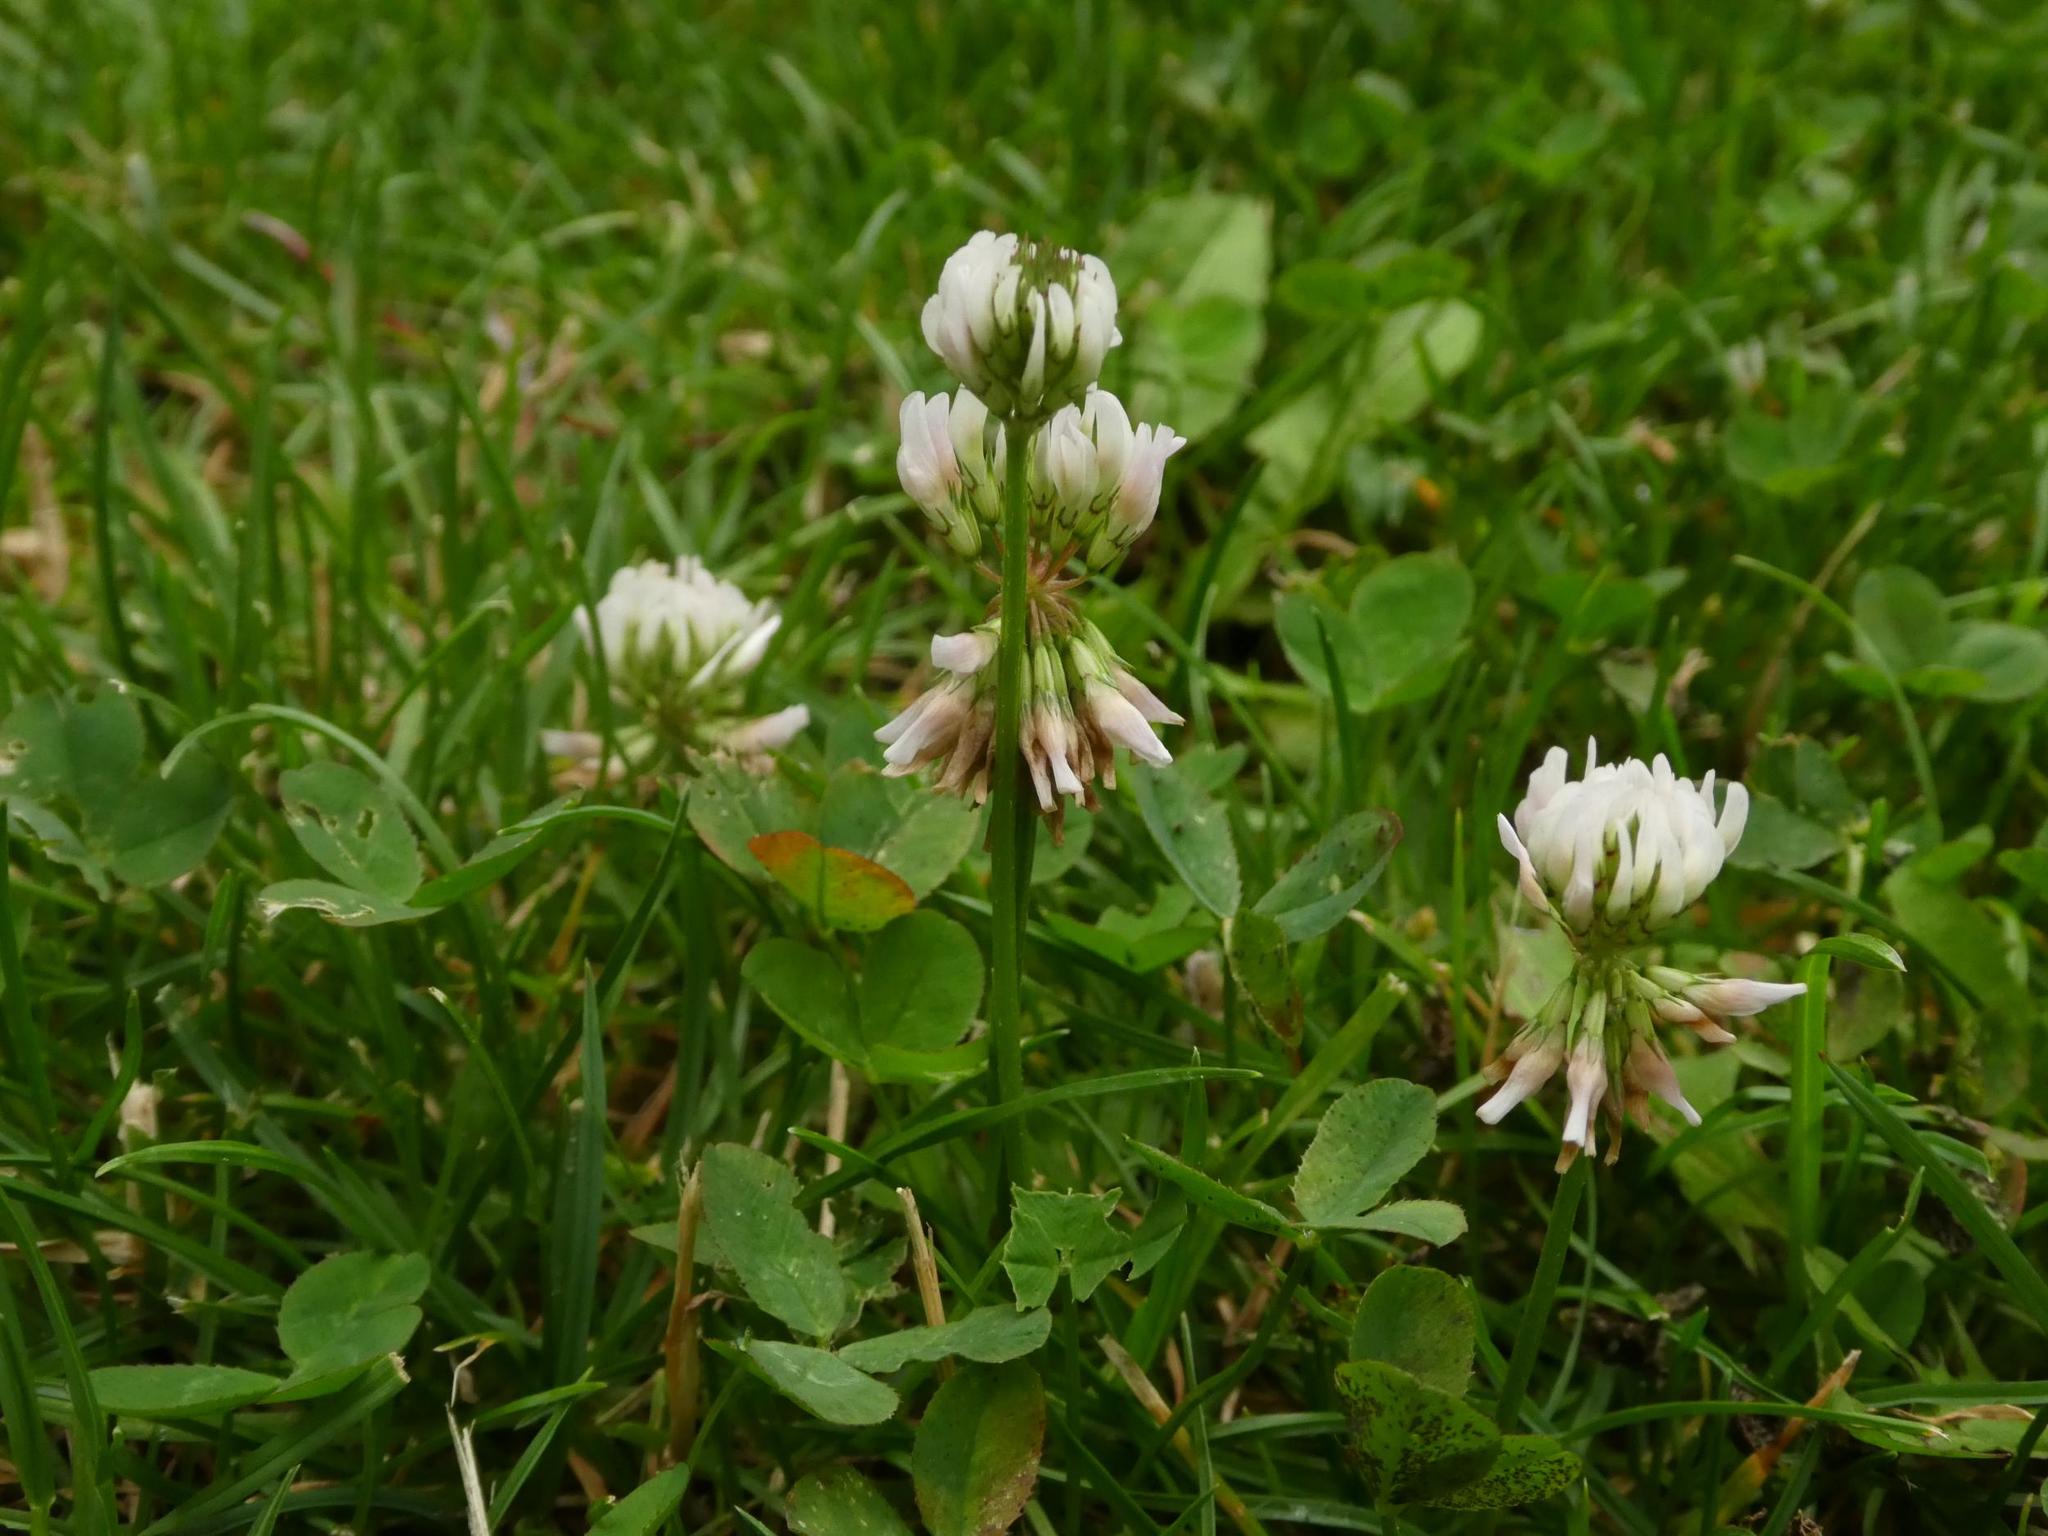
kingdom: Plantae
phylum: Tracheophyta
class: Magnoliopsida
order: Fabales
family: Fabaceae
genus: Trifolium
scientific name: Trifolium repens
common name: White clover
